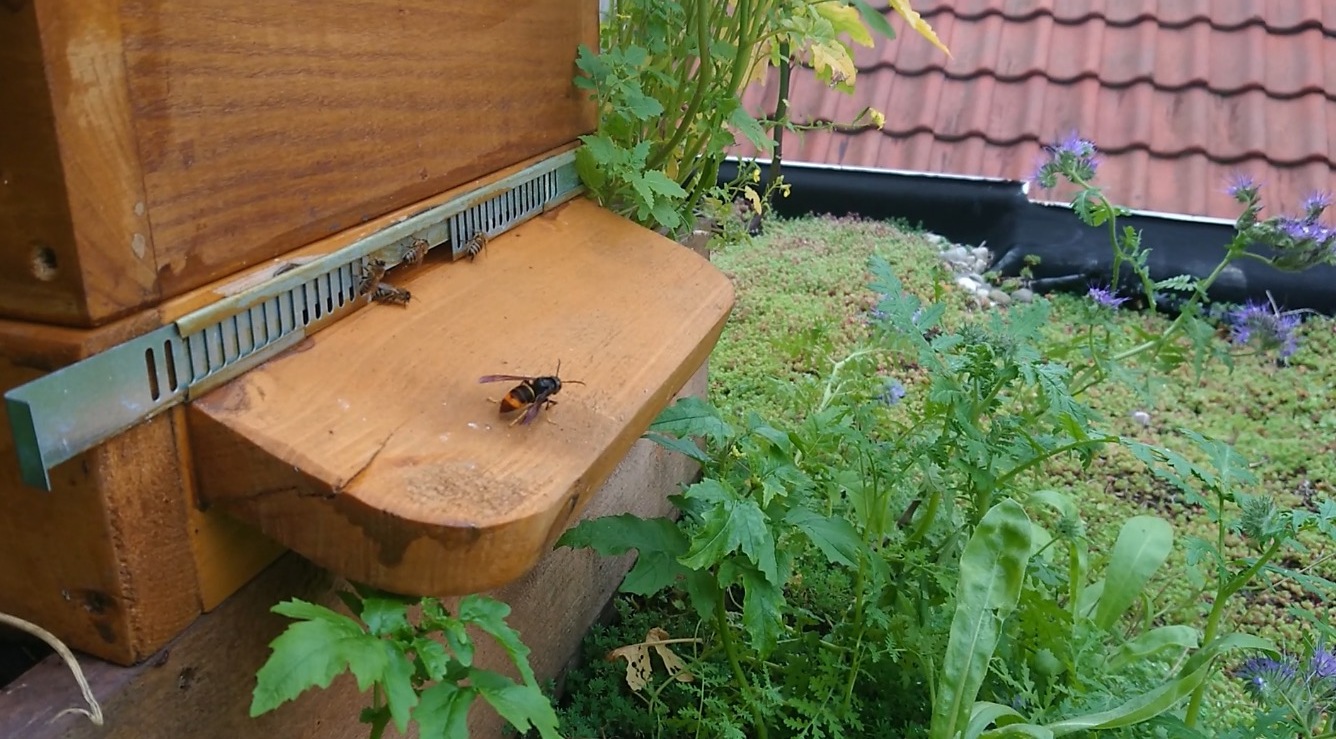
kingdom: Animalia
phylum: Arthropoda
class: Insecta
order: Hymenoptera
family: Vespidae
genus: Vespa
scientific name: Vespa velutina
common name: Asian hornet
